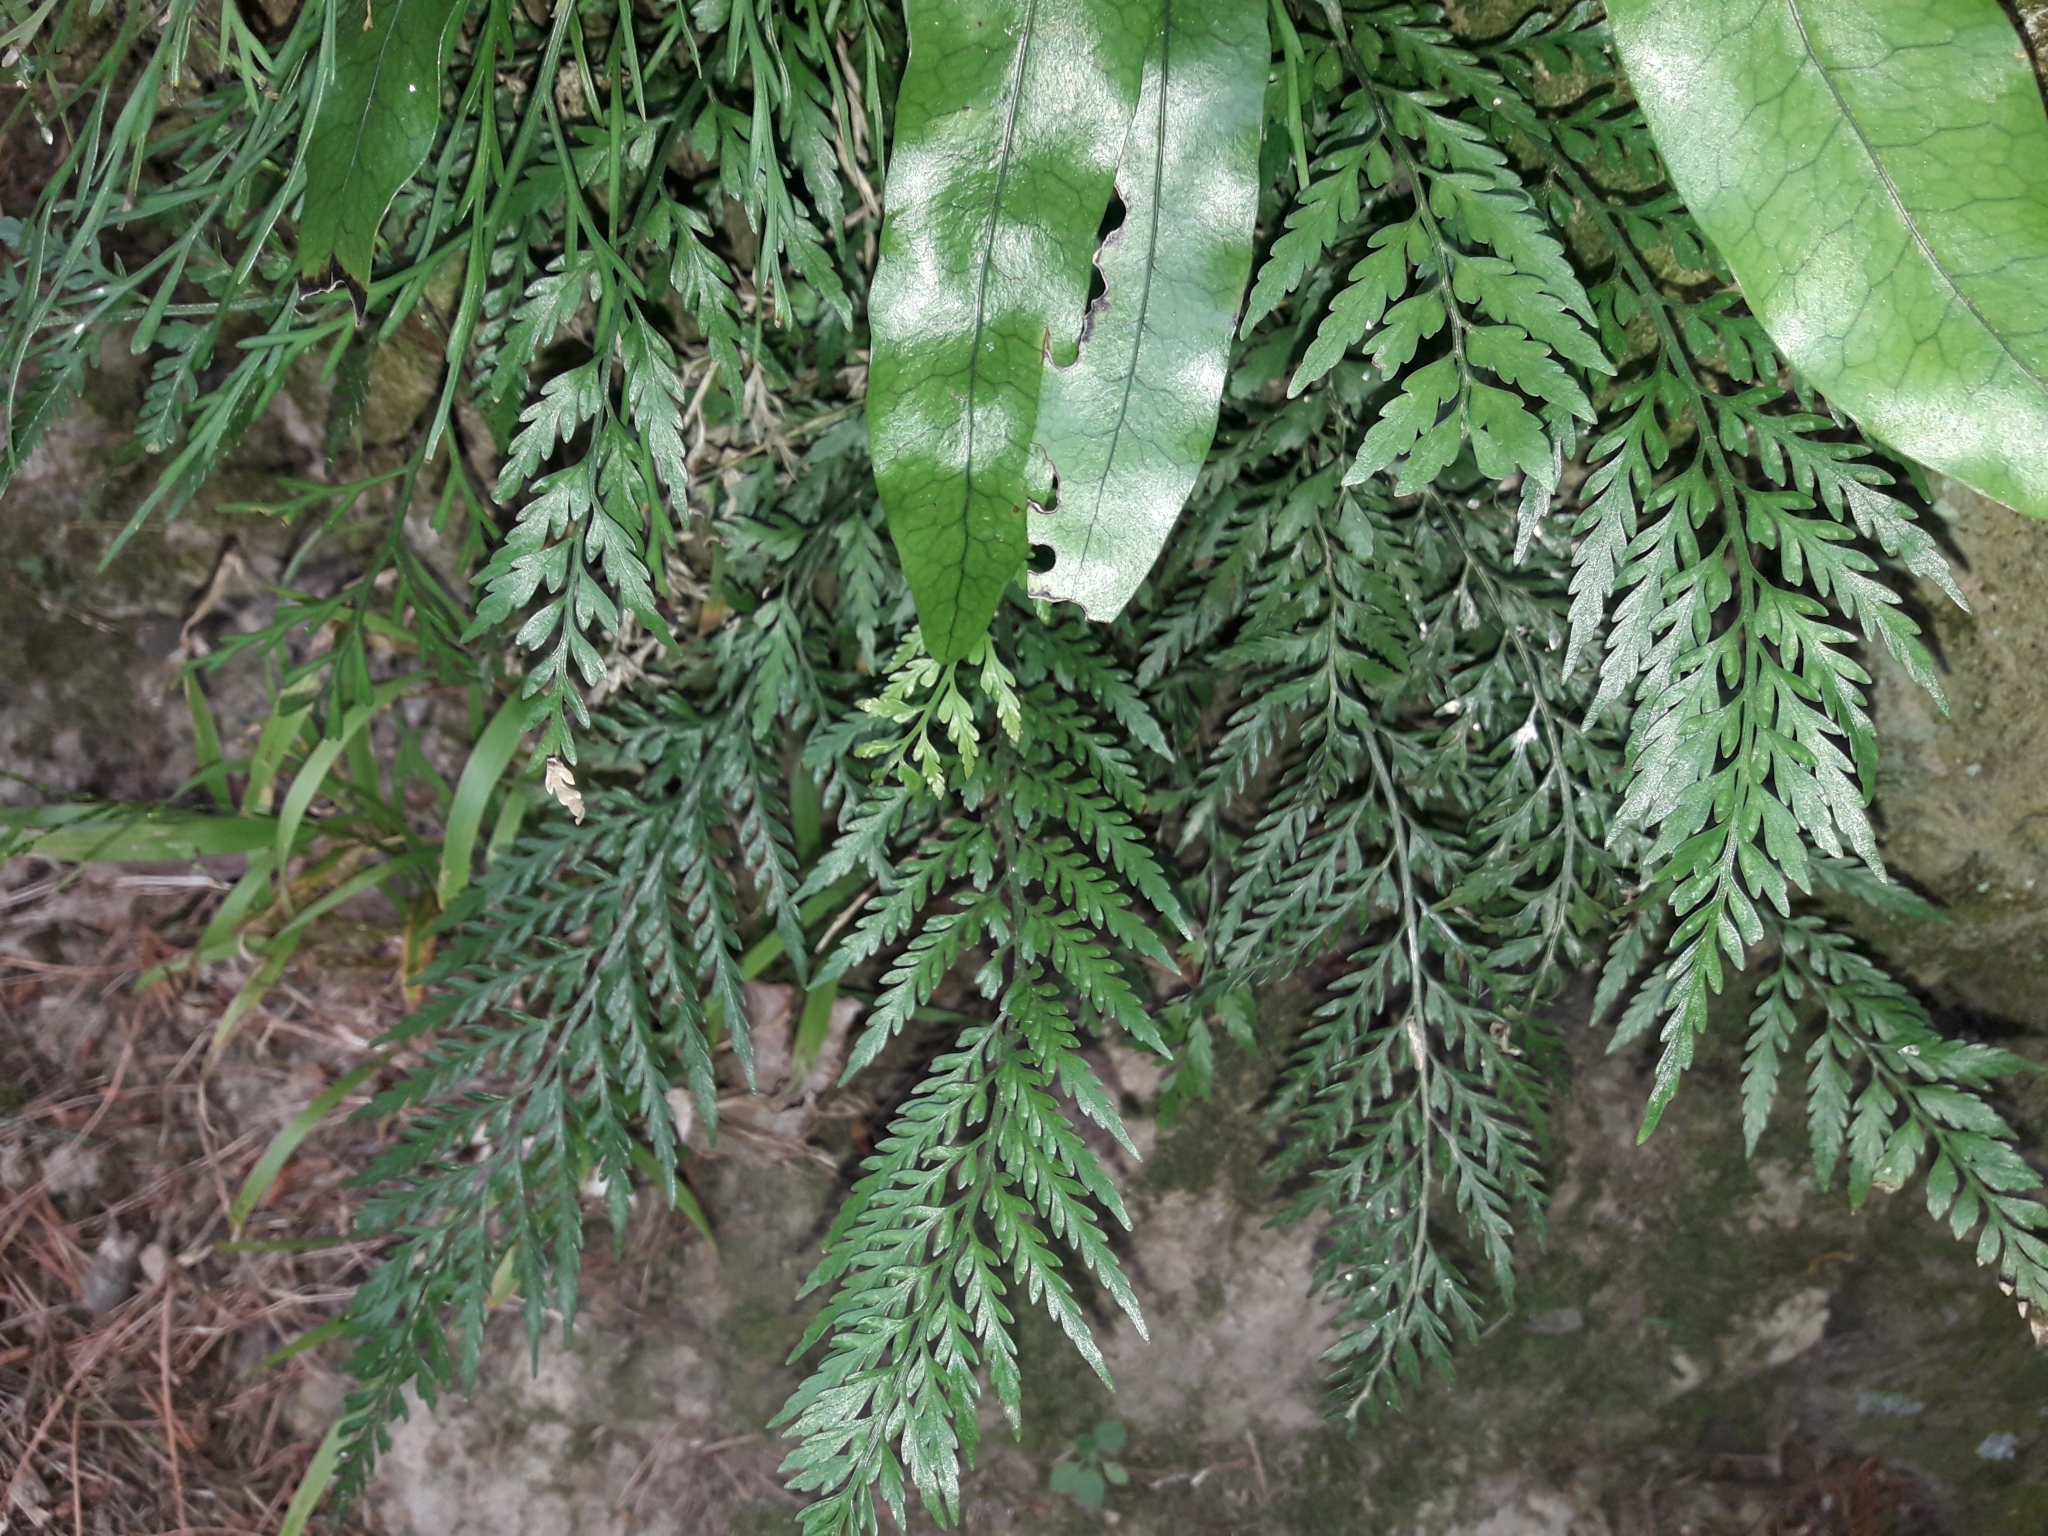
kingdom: Plantae
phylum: Tracheophyta
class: Polypodiopsida
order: Polypodiales
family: Aspleniaceae
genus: Asplenium
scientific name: Asplenium appendiculatum
